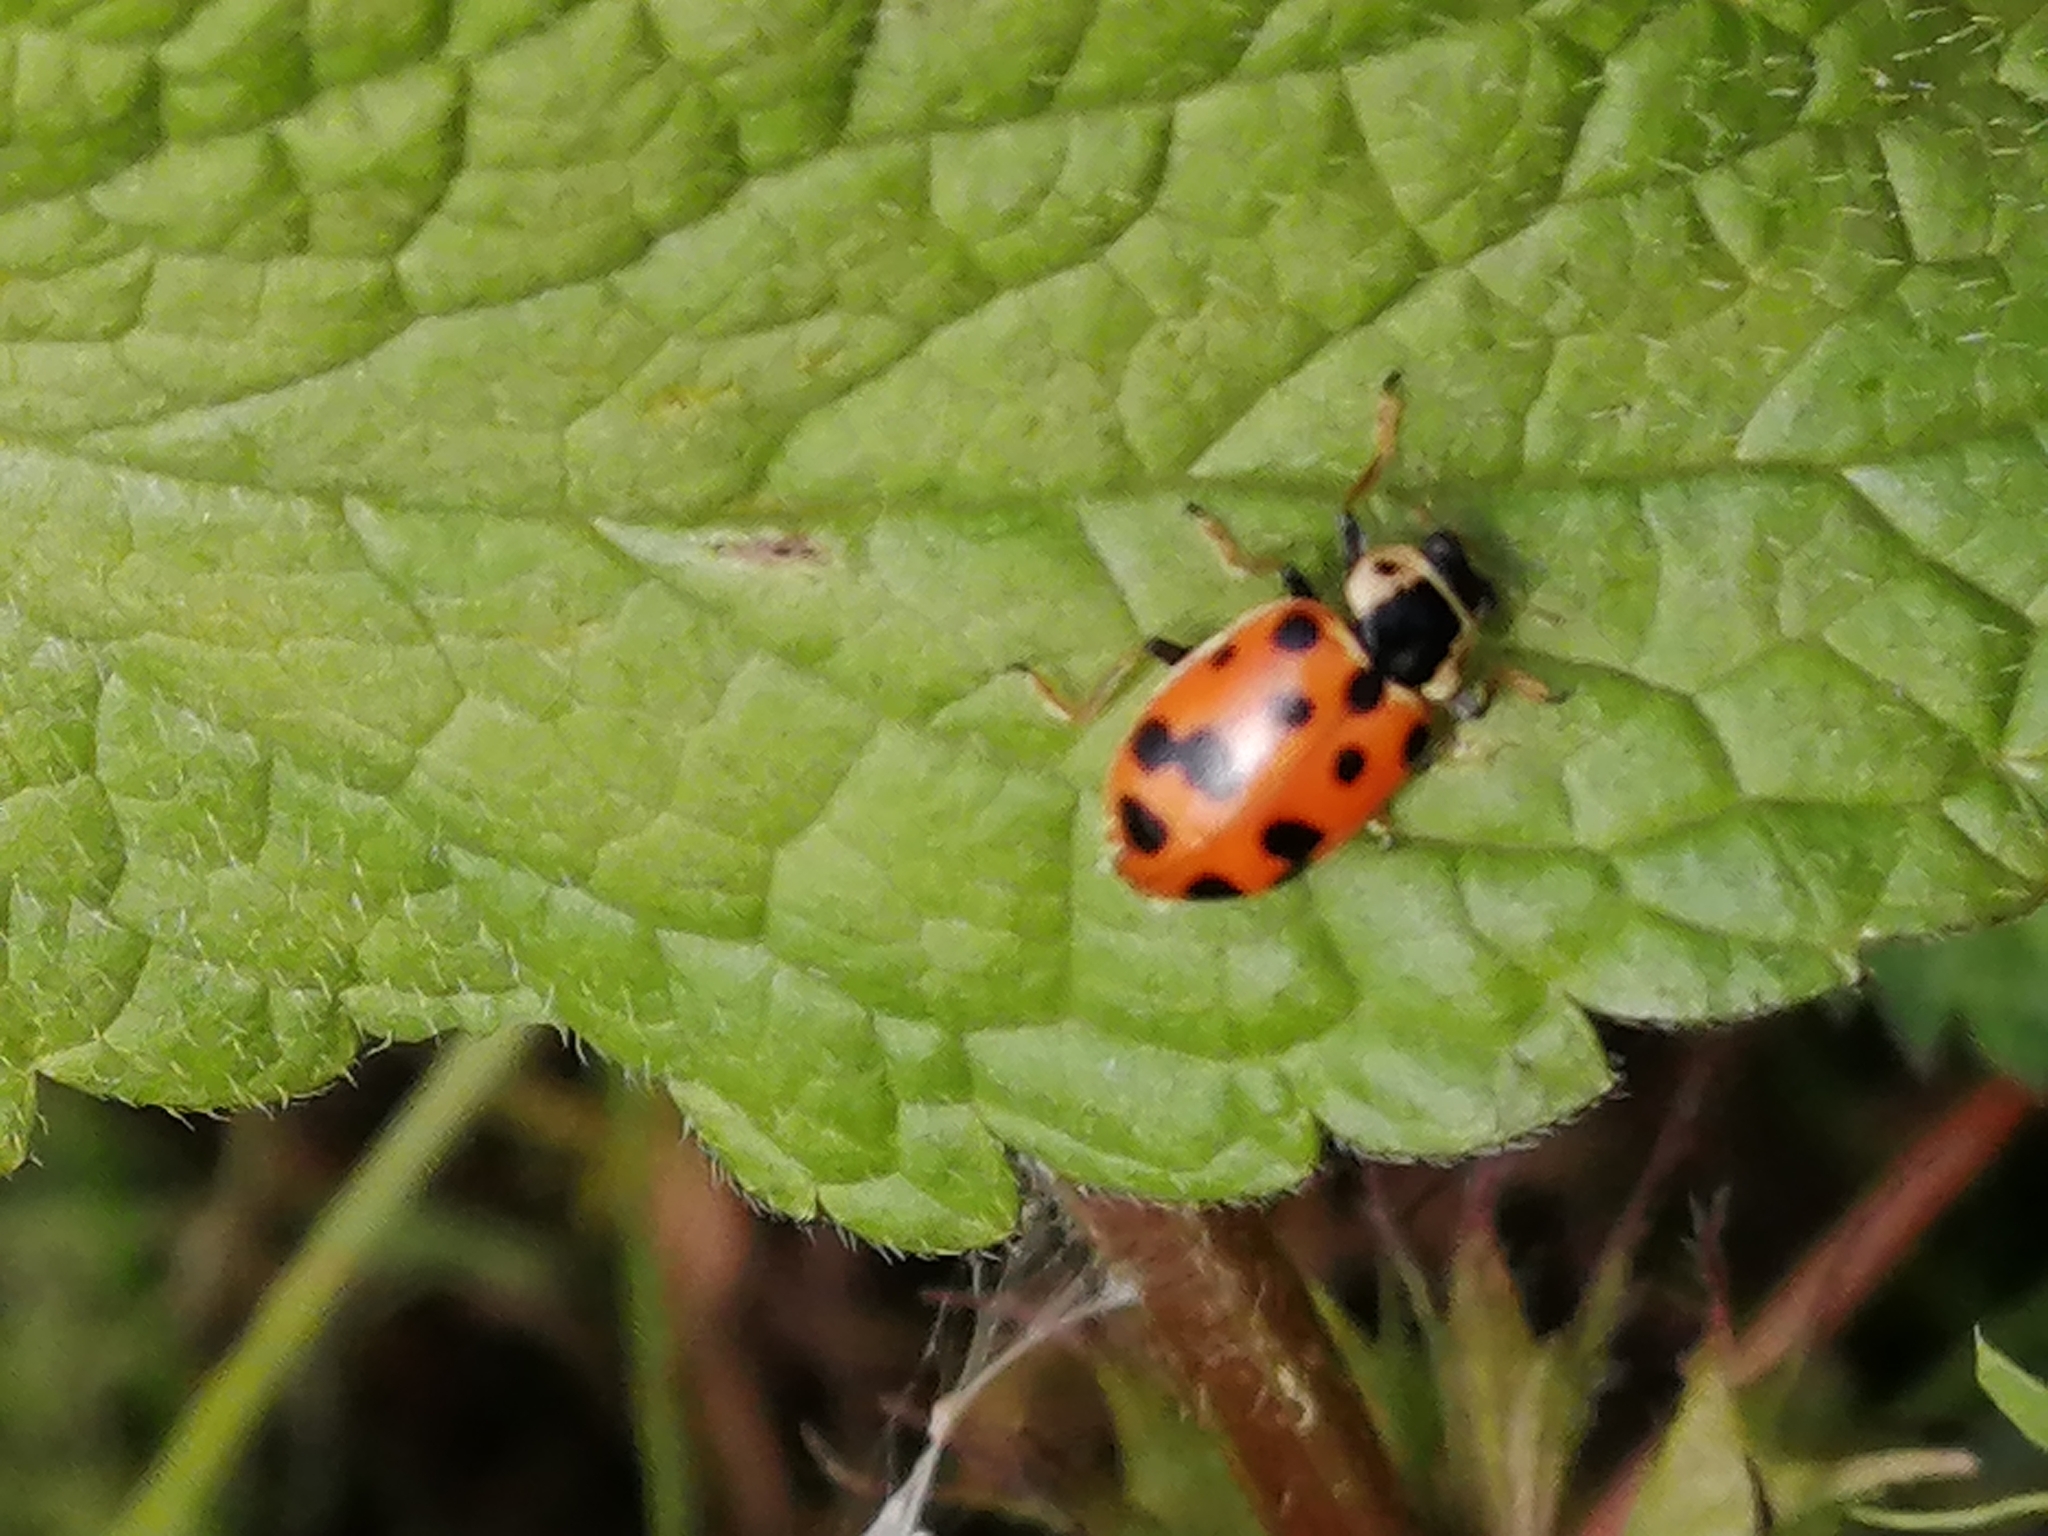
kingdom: Animalia
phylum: Arthropoda
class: Insecta
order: Coleoptera
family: Coccinellidae
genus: Hippodamia
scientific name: Hippodamia tredecimpunctata
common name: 13-spot ladybird
